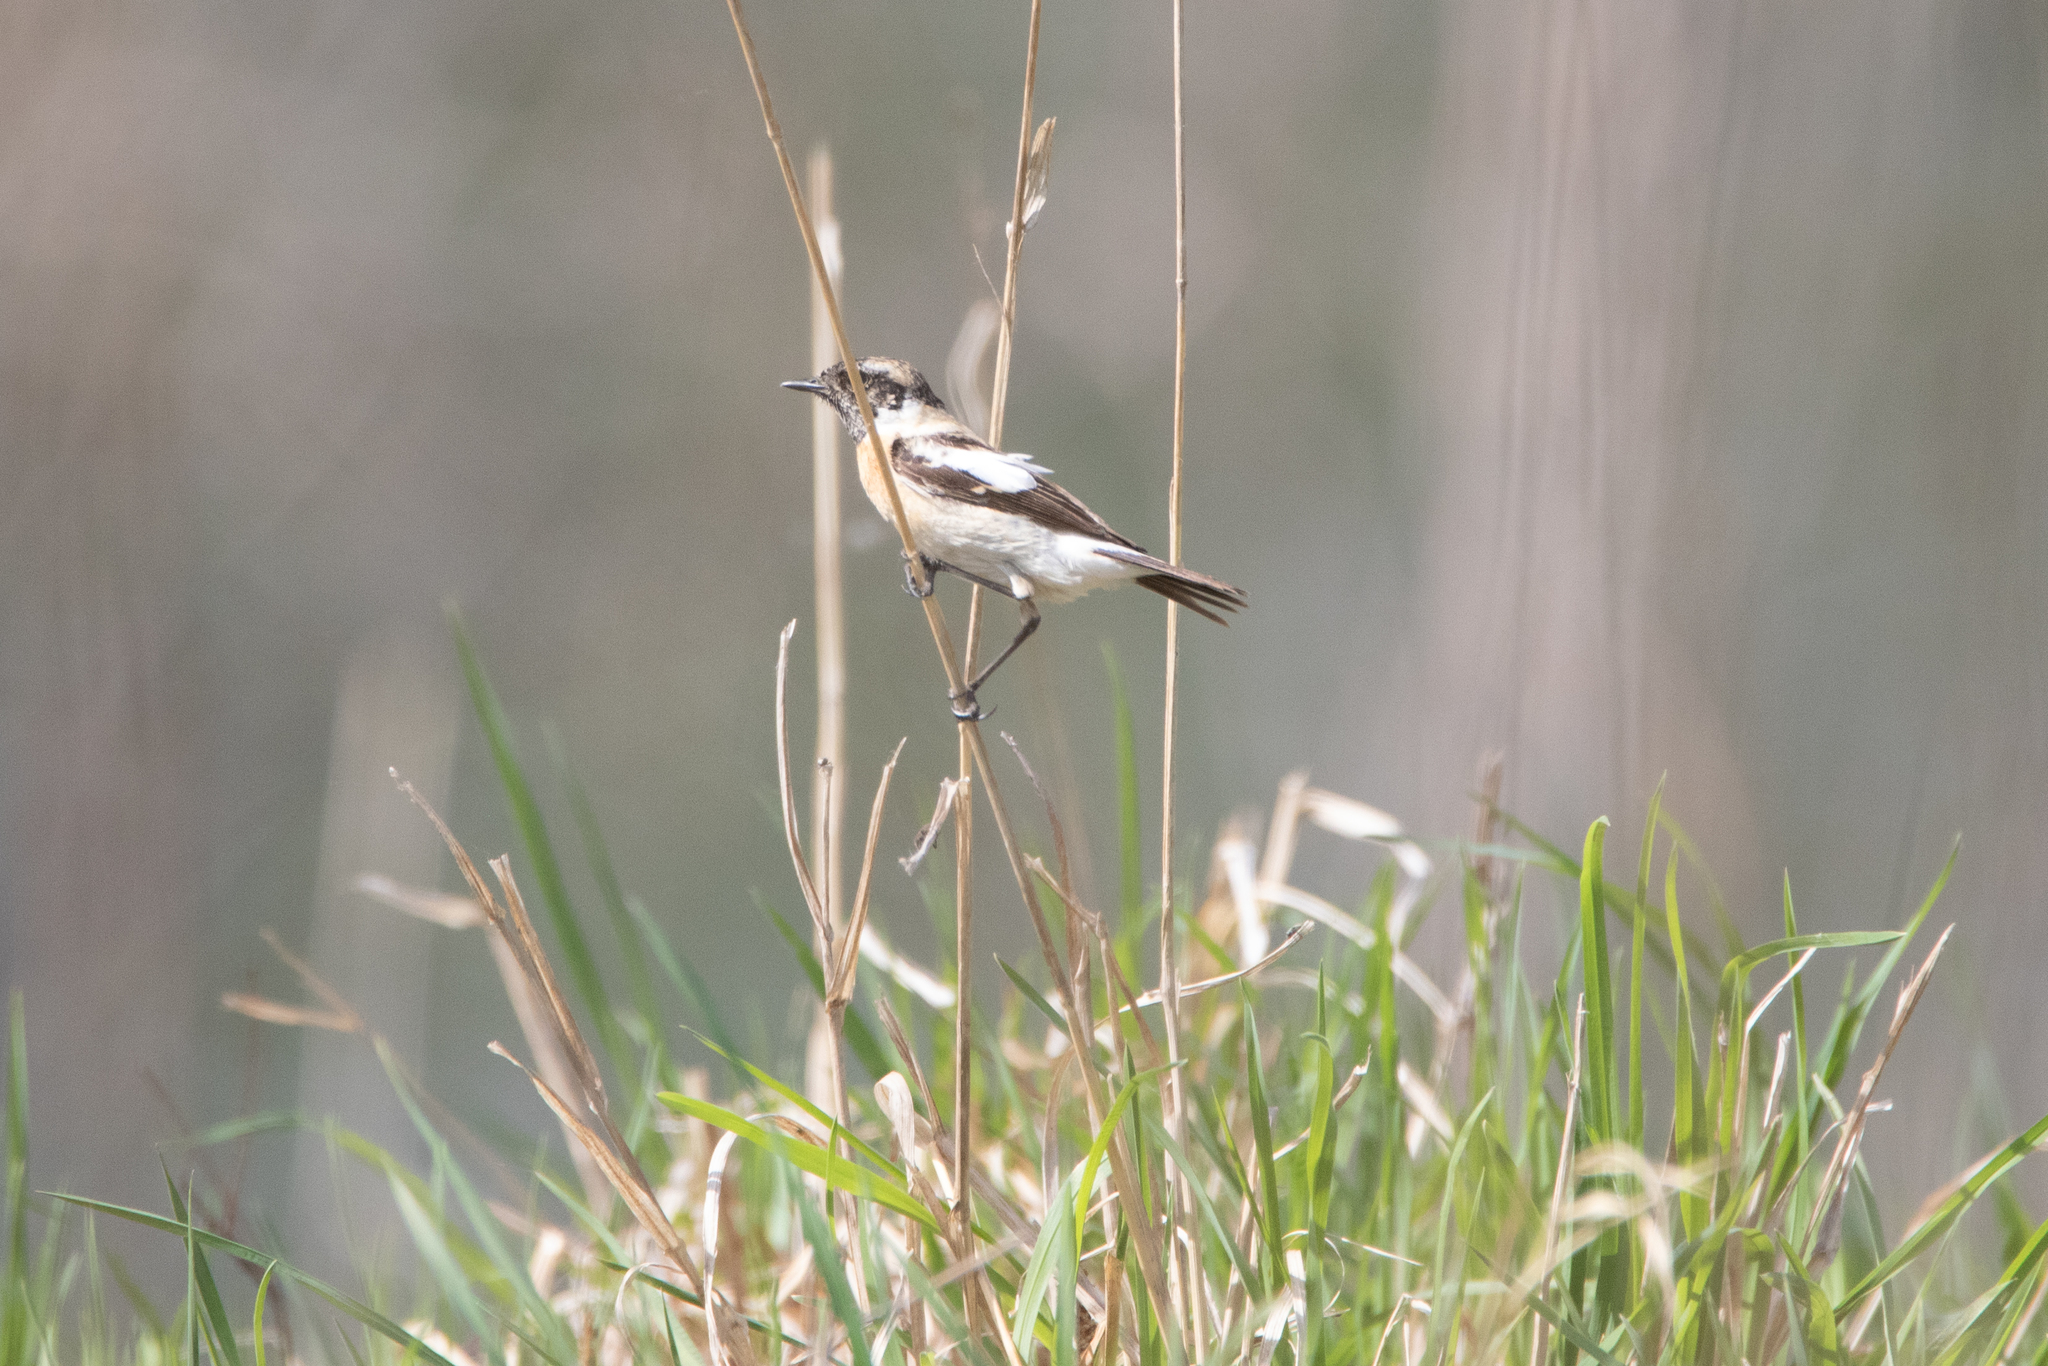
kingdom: Animalia
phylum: Chordata
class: Aves
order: Passeriformes
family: Muscicapidae
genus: Saxicola
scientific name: Saxicola maurus
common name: Siberian stonechat
